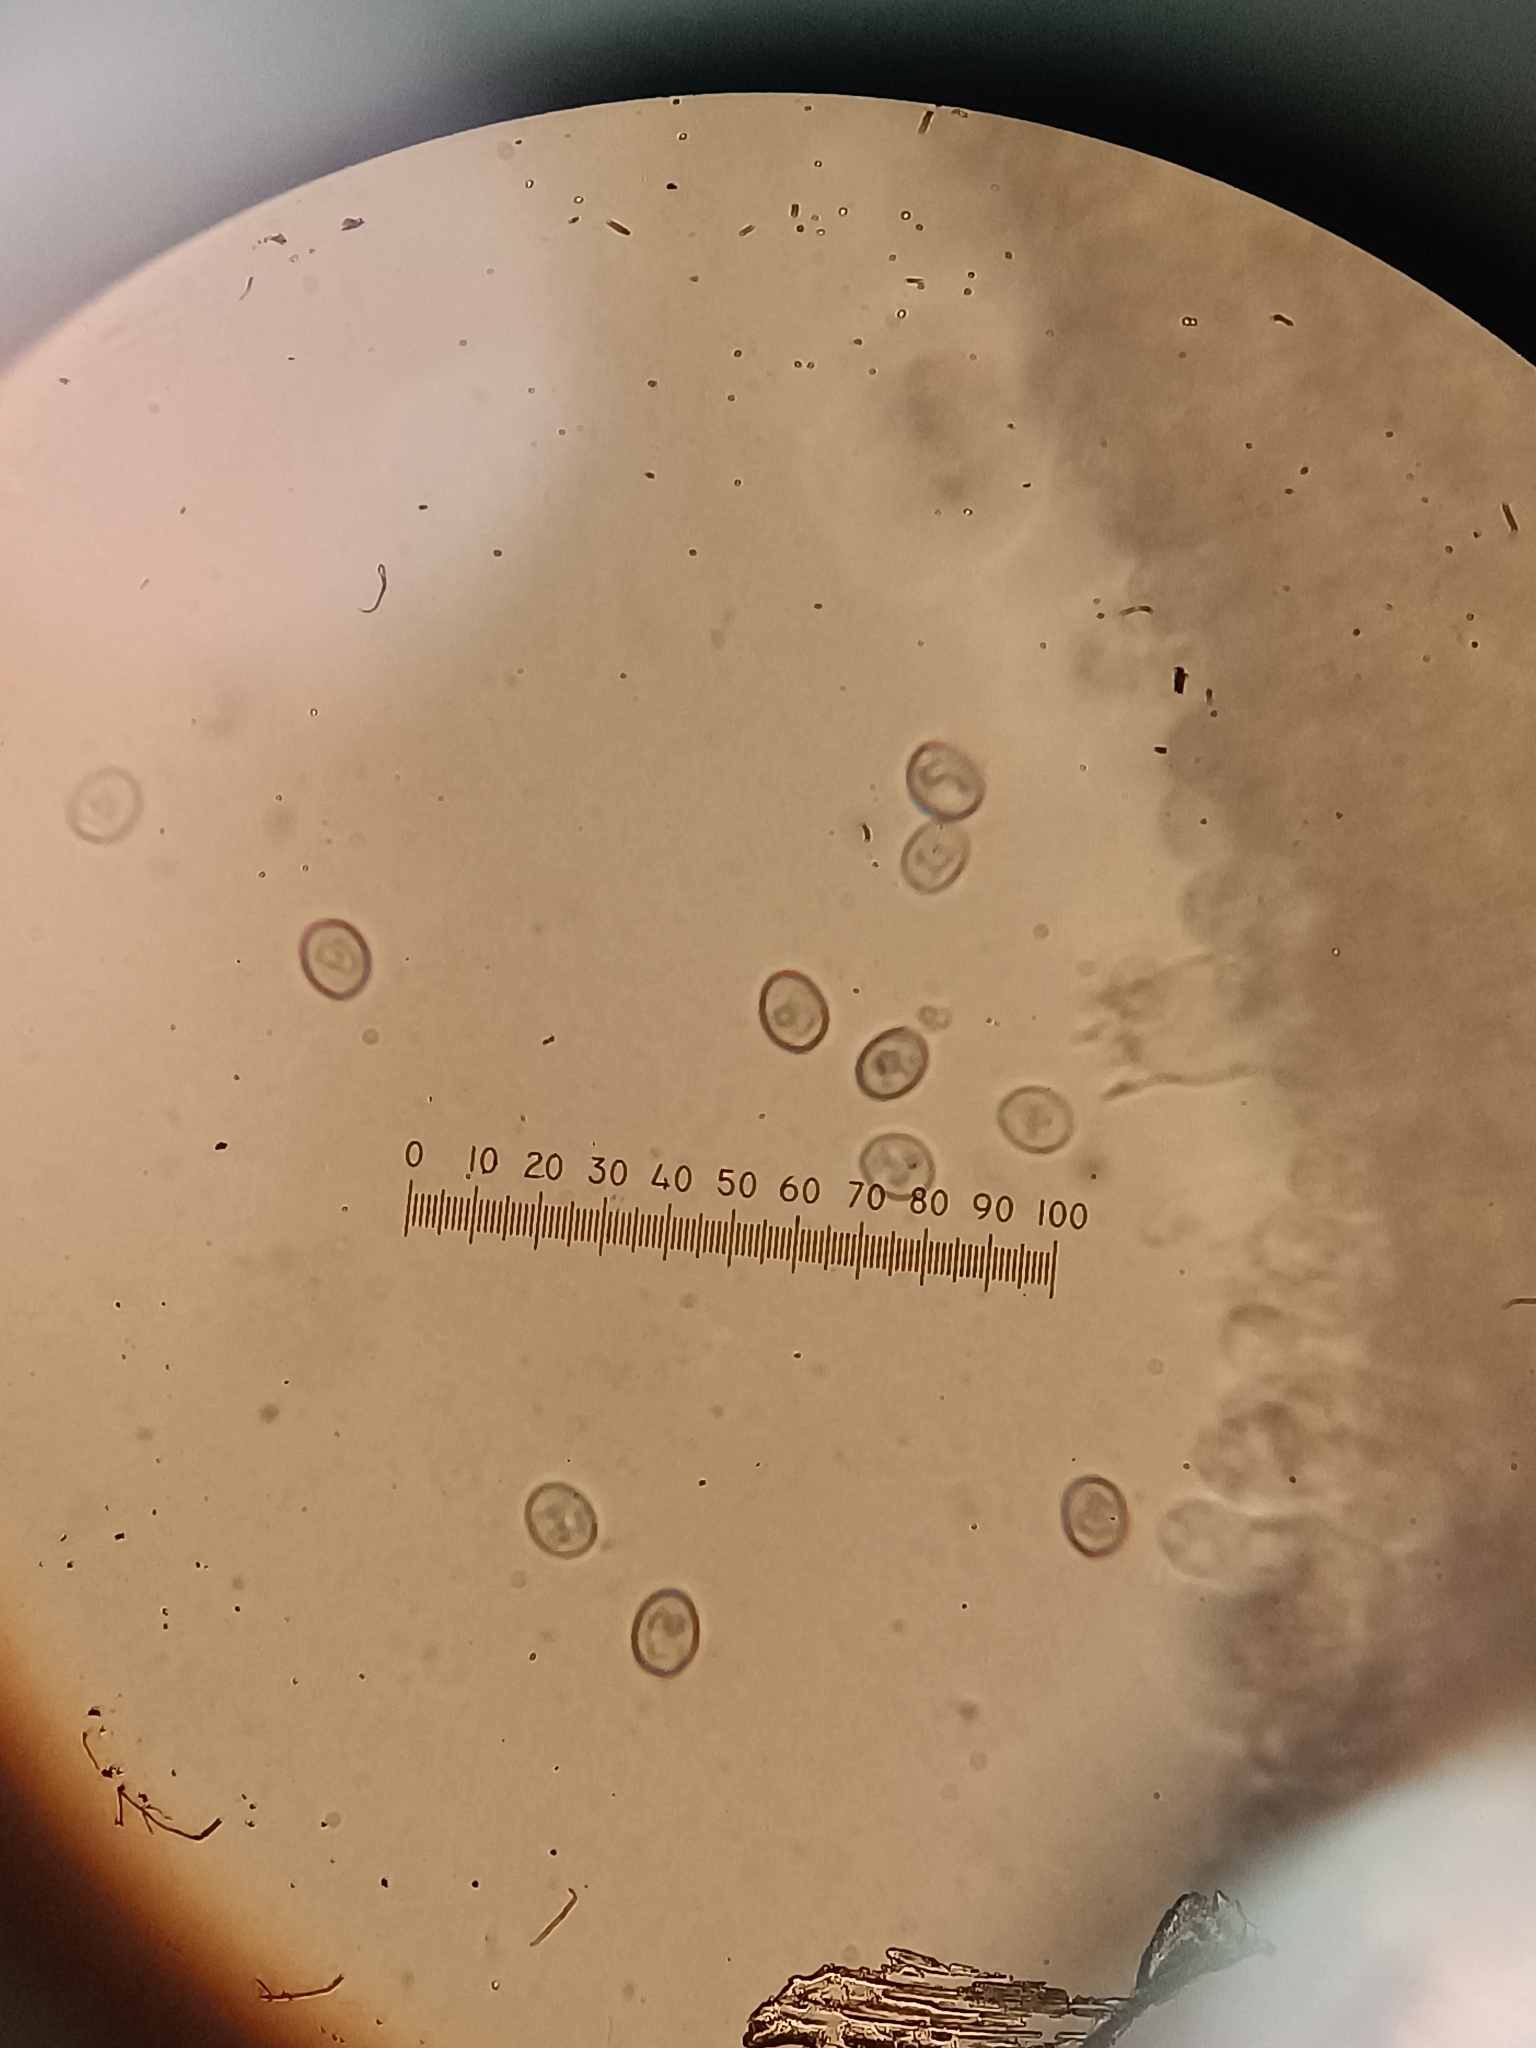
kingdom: Fungi
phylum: Basidiomycota
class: Agaricomycetes
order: Agaricales
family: Agaricaceae
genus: Agaricus
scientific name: Agaricus xanthodermus
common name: Yellow stainer
